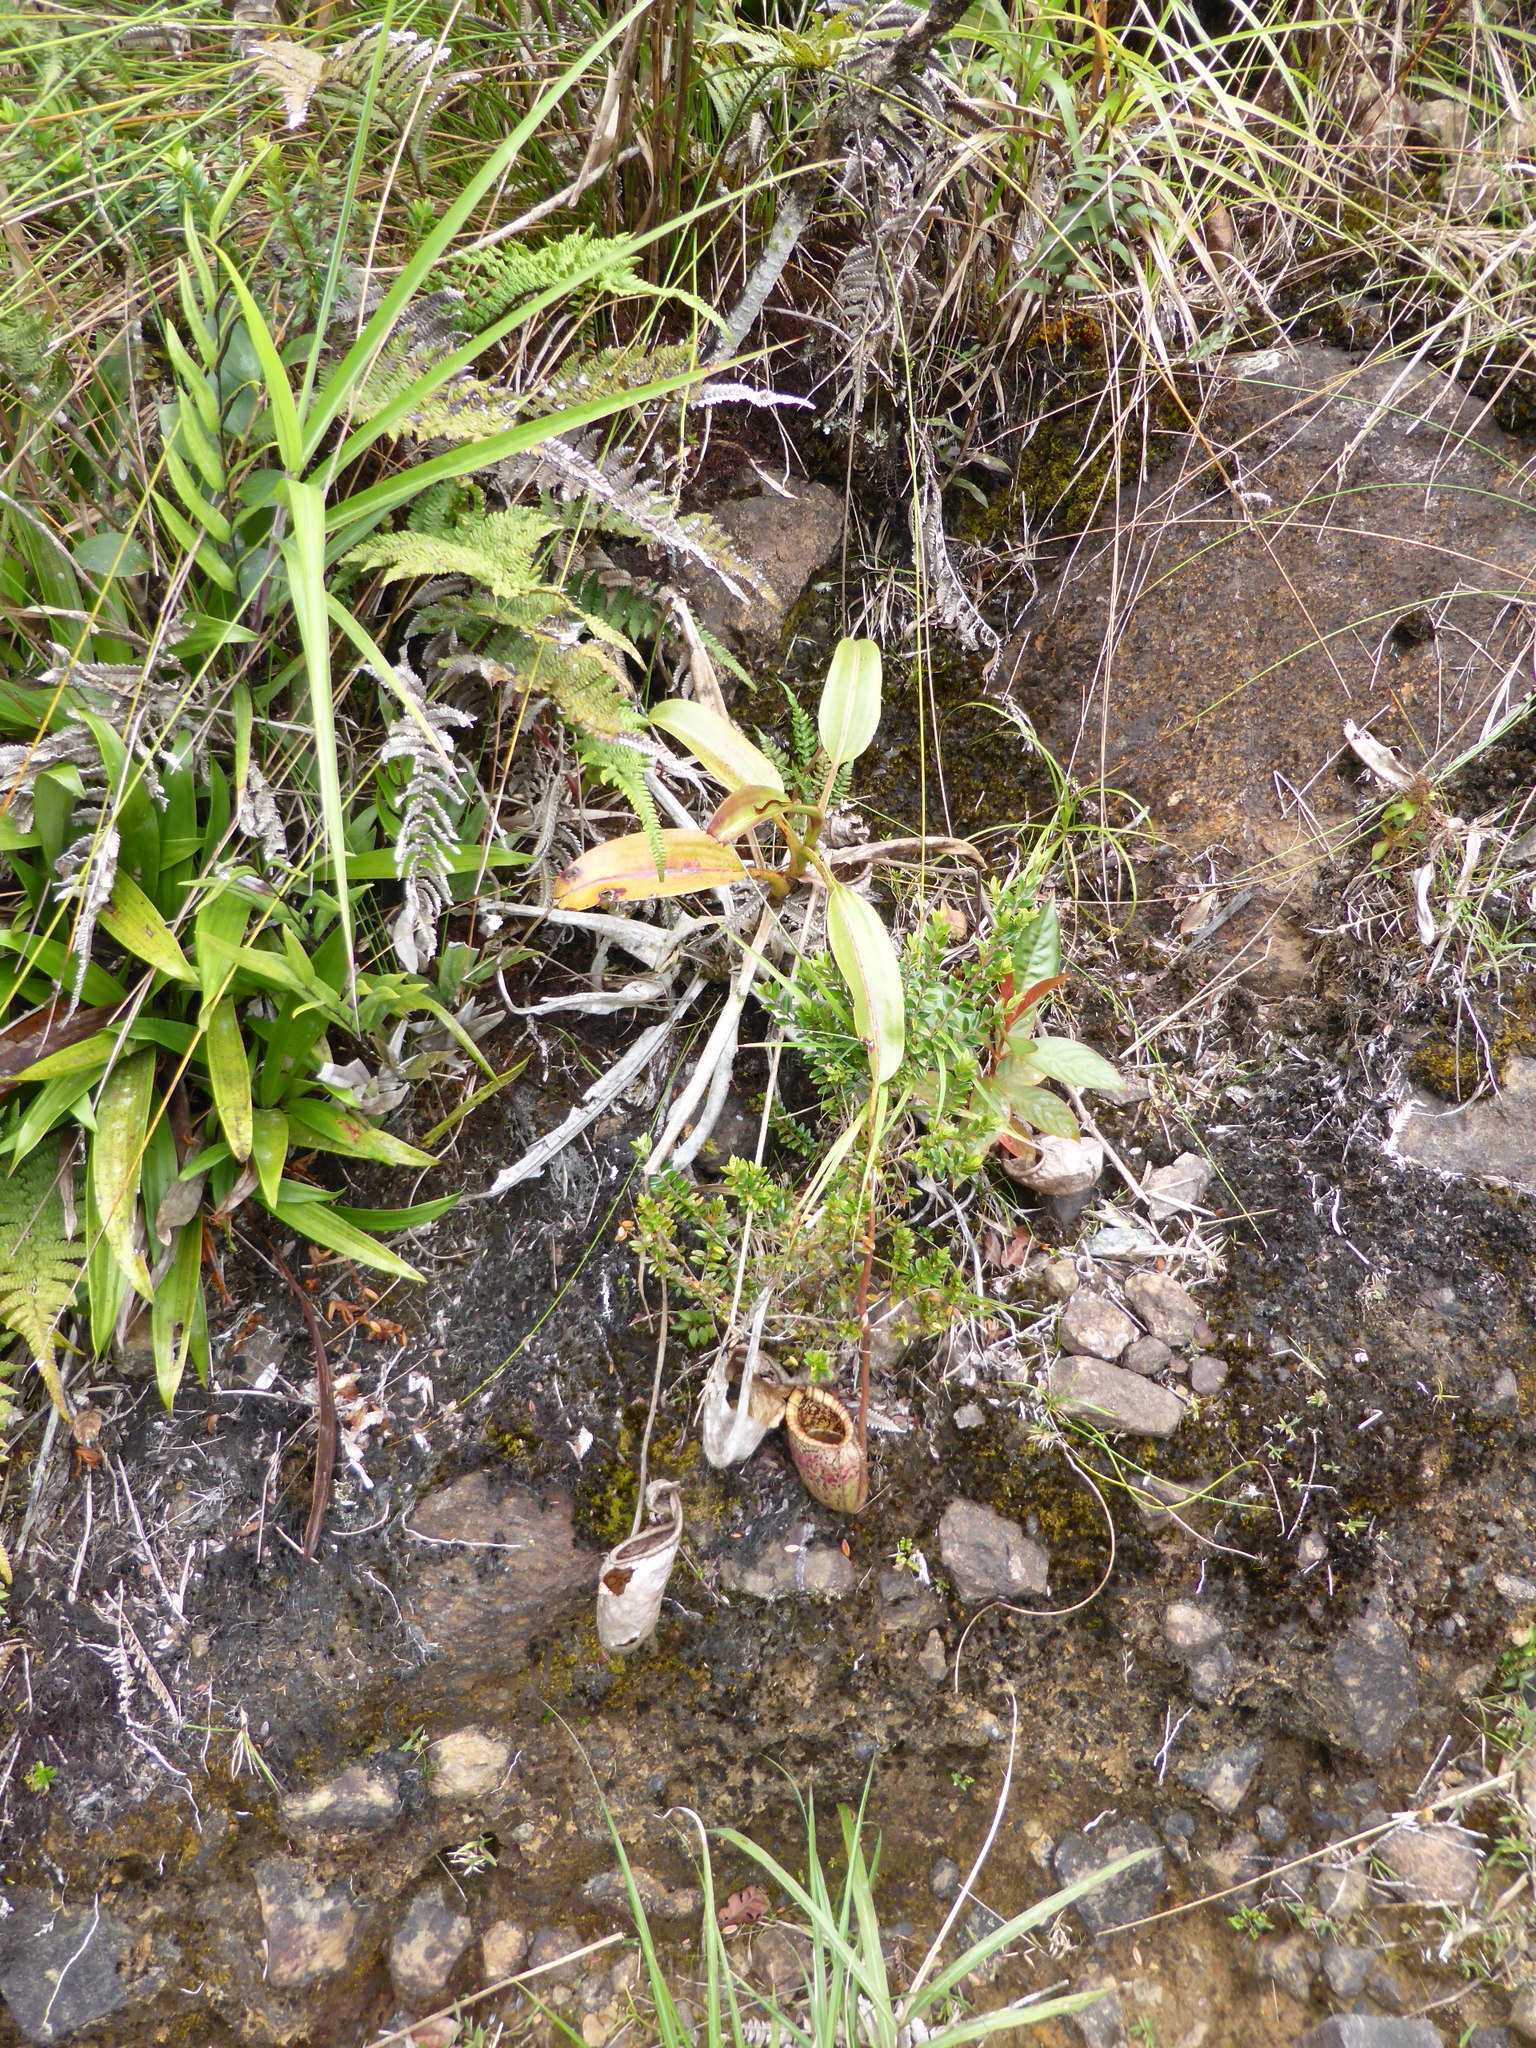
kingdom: Plantae
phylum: Tracheophyta
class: Magnoliopsida
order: Caryophyllales
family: Nepenthaceae
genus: Nepenthes
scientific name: Nepenthes burbidgeae
